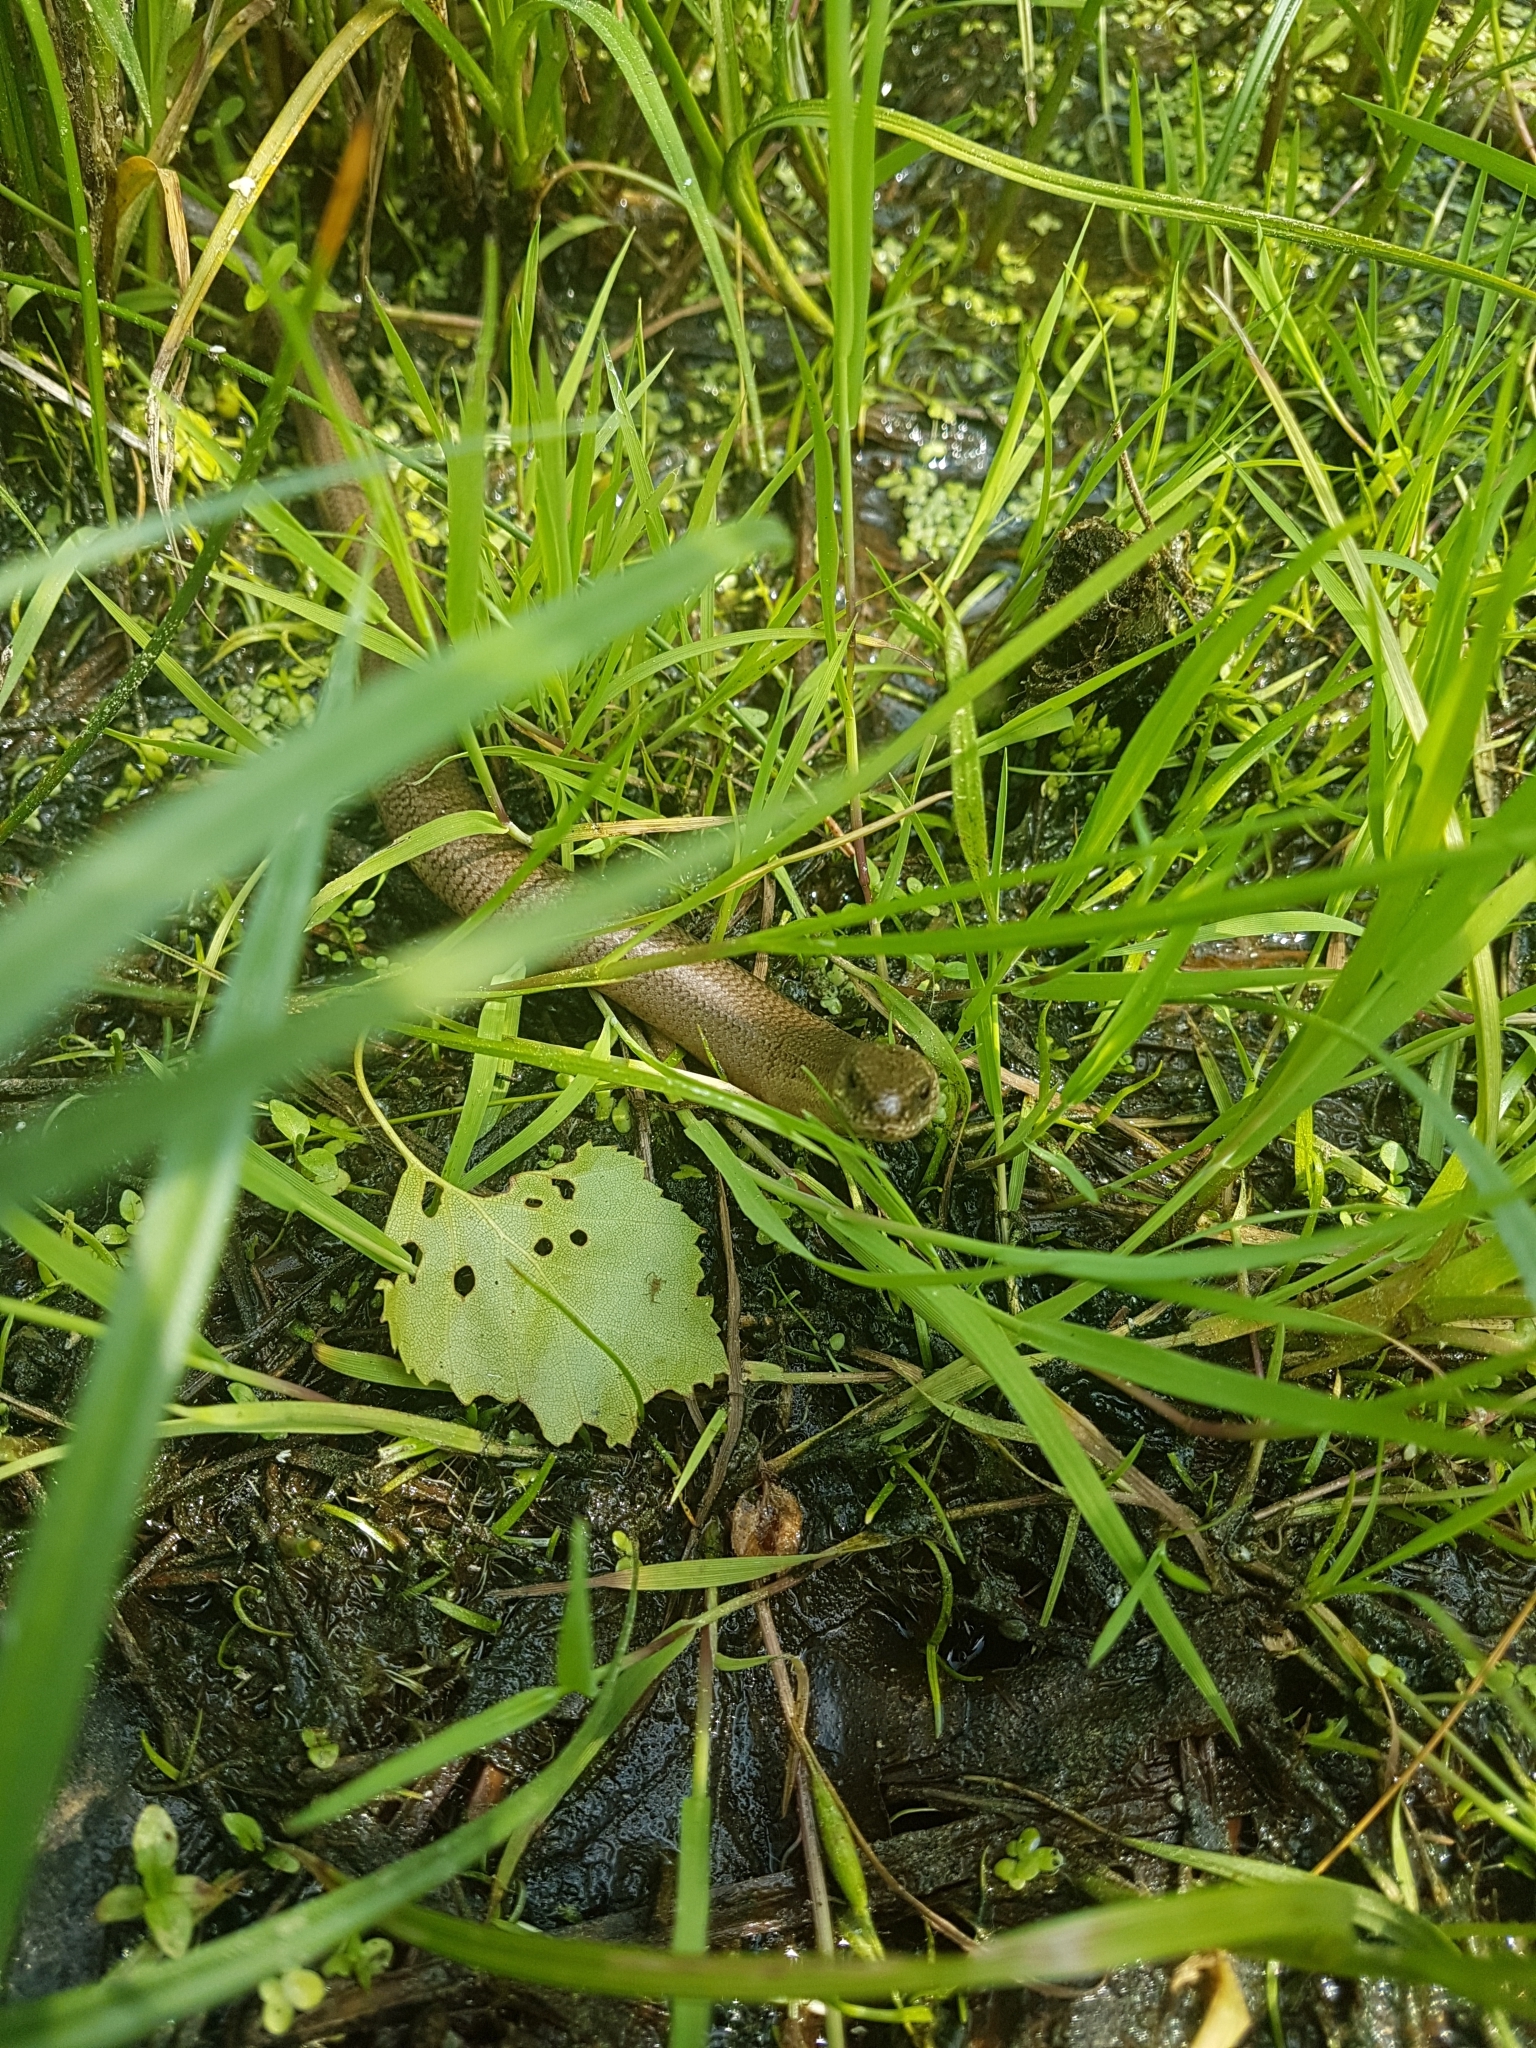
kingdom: Animalia
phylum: Chordata
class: Squamata
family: Anguidae
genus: Anguis
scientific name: Anguis fragilis
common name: Slow worm
